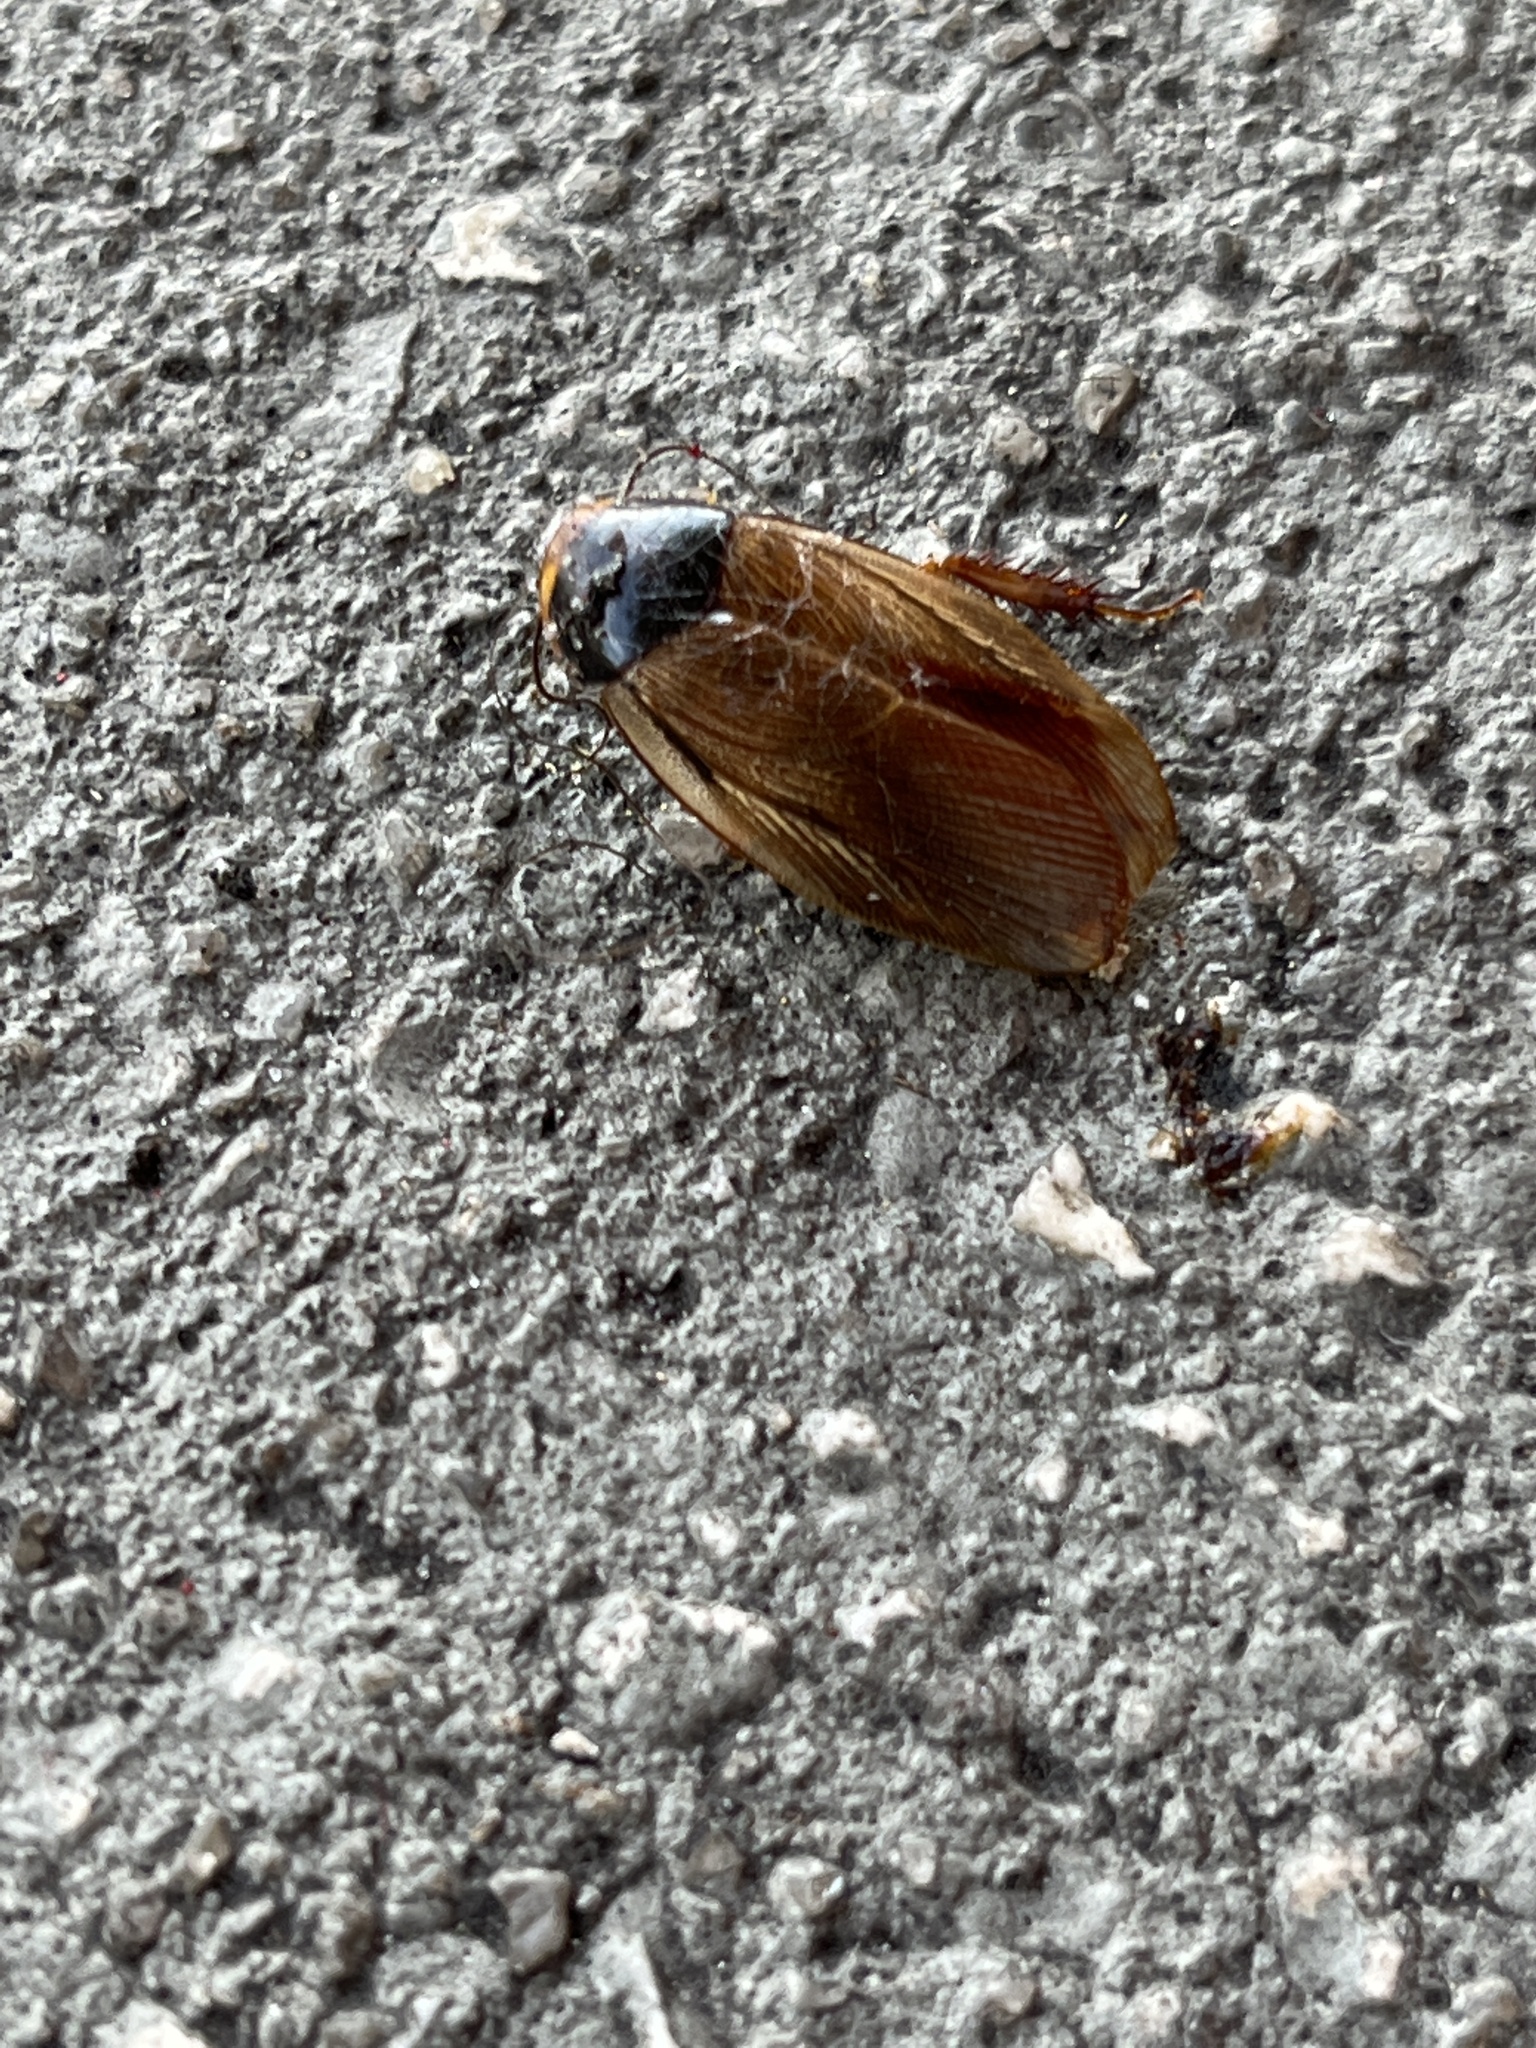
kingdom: Animalia
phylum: Arthropoda
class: Insecta
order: Blattodea
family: Blaberidae
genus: Pycnoscelus
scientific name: Pycnoscelus surinamensis
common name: Surinam cockroach
